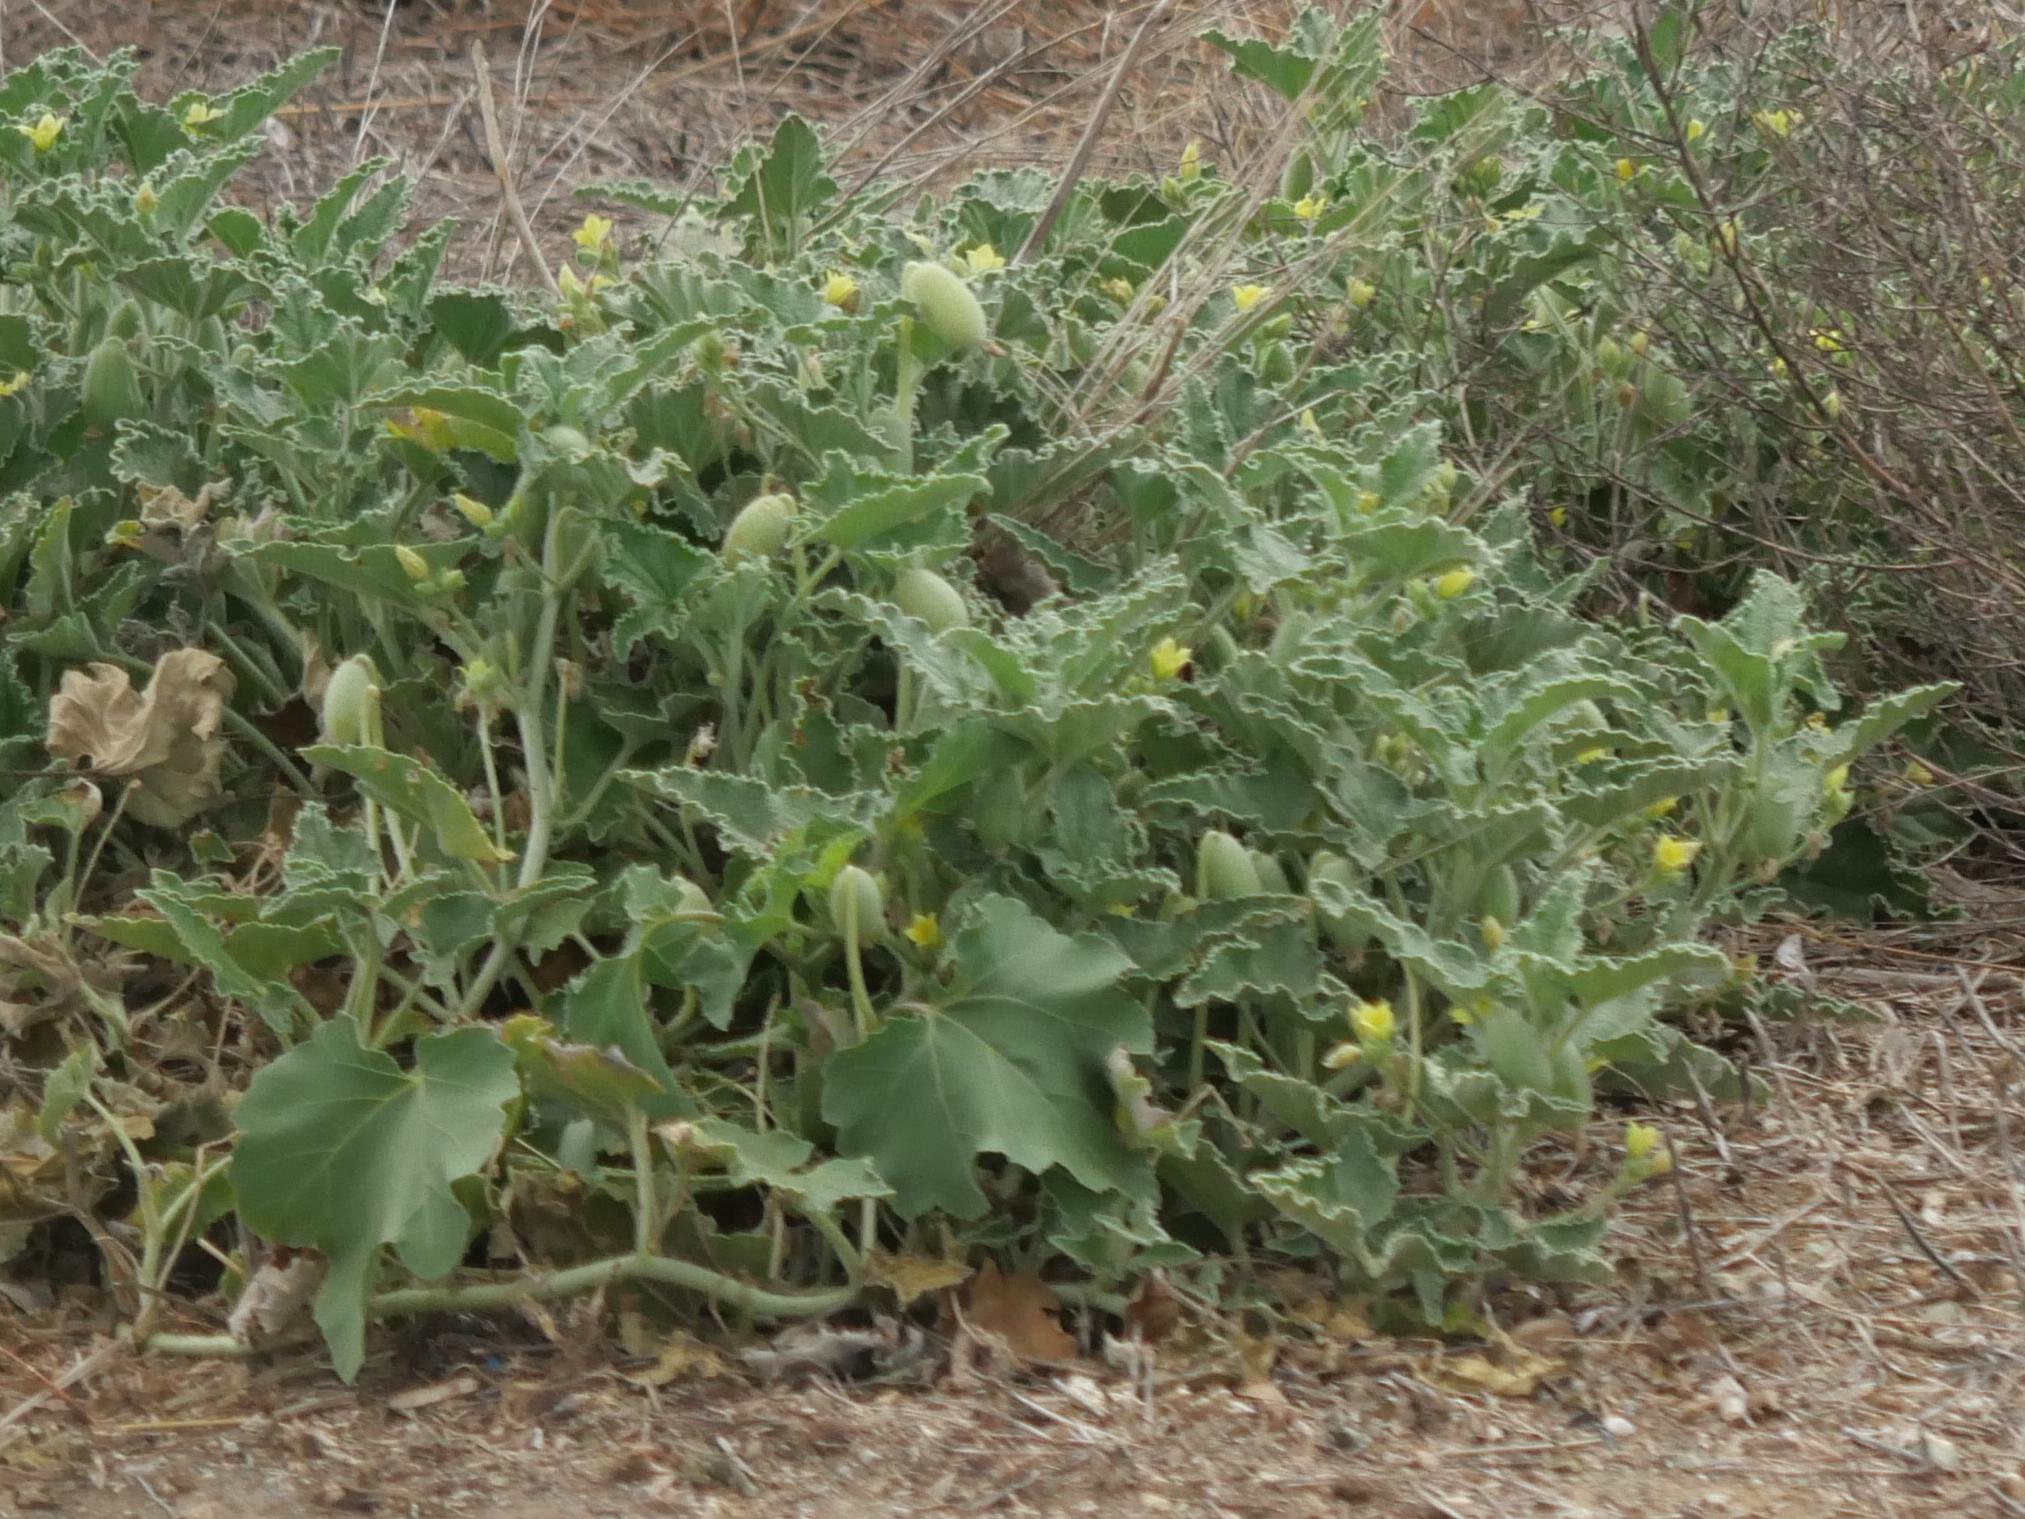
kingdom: Plantae
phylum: Tracheophyta
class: Magnoliopsida
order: Cucurbitales
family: Cucurbitaceae
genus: Ecballium
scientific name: Ecballium elaterium
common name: Squirting cucumber
